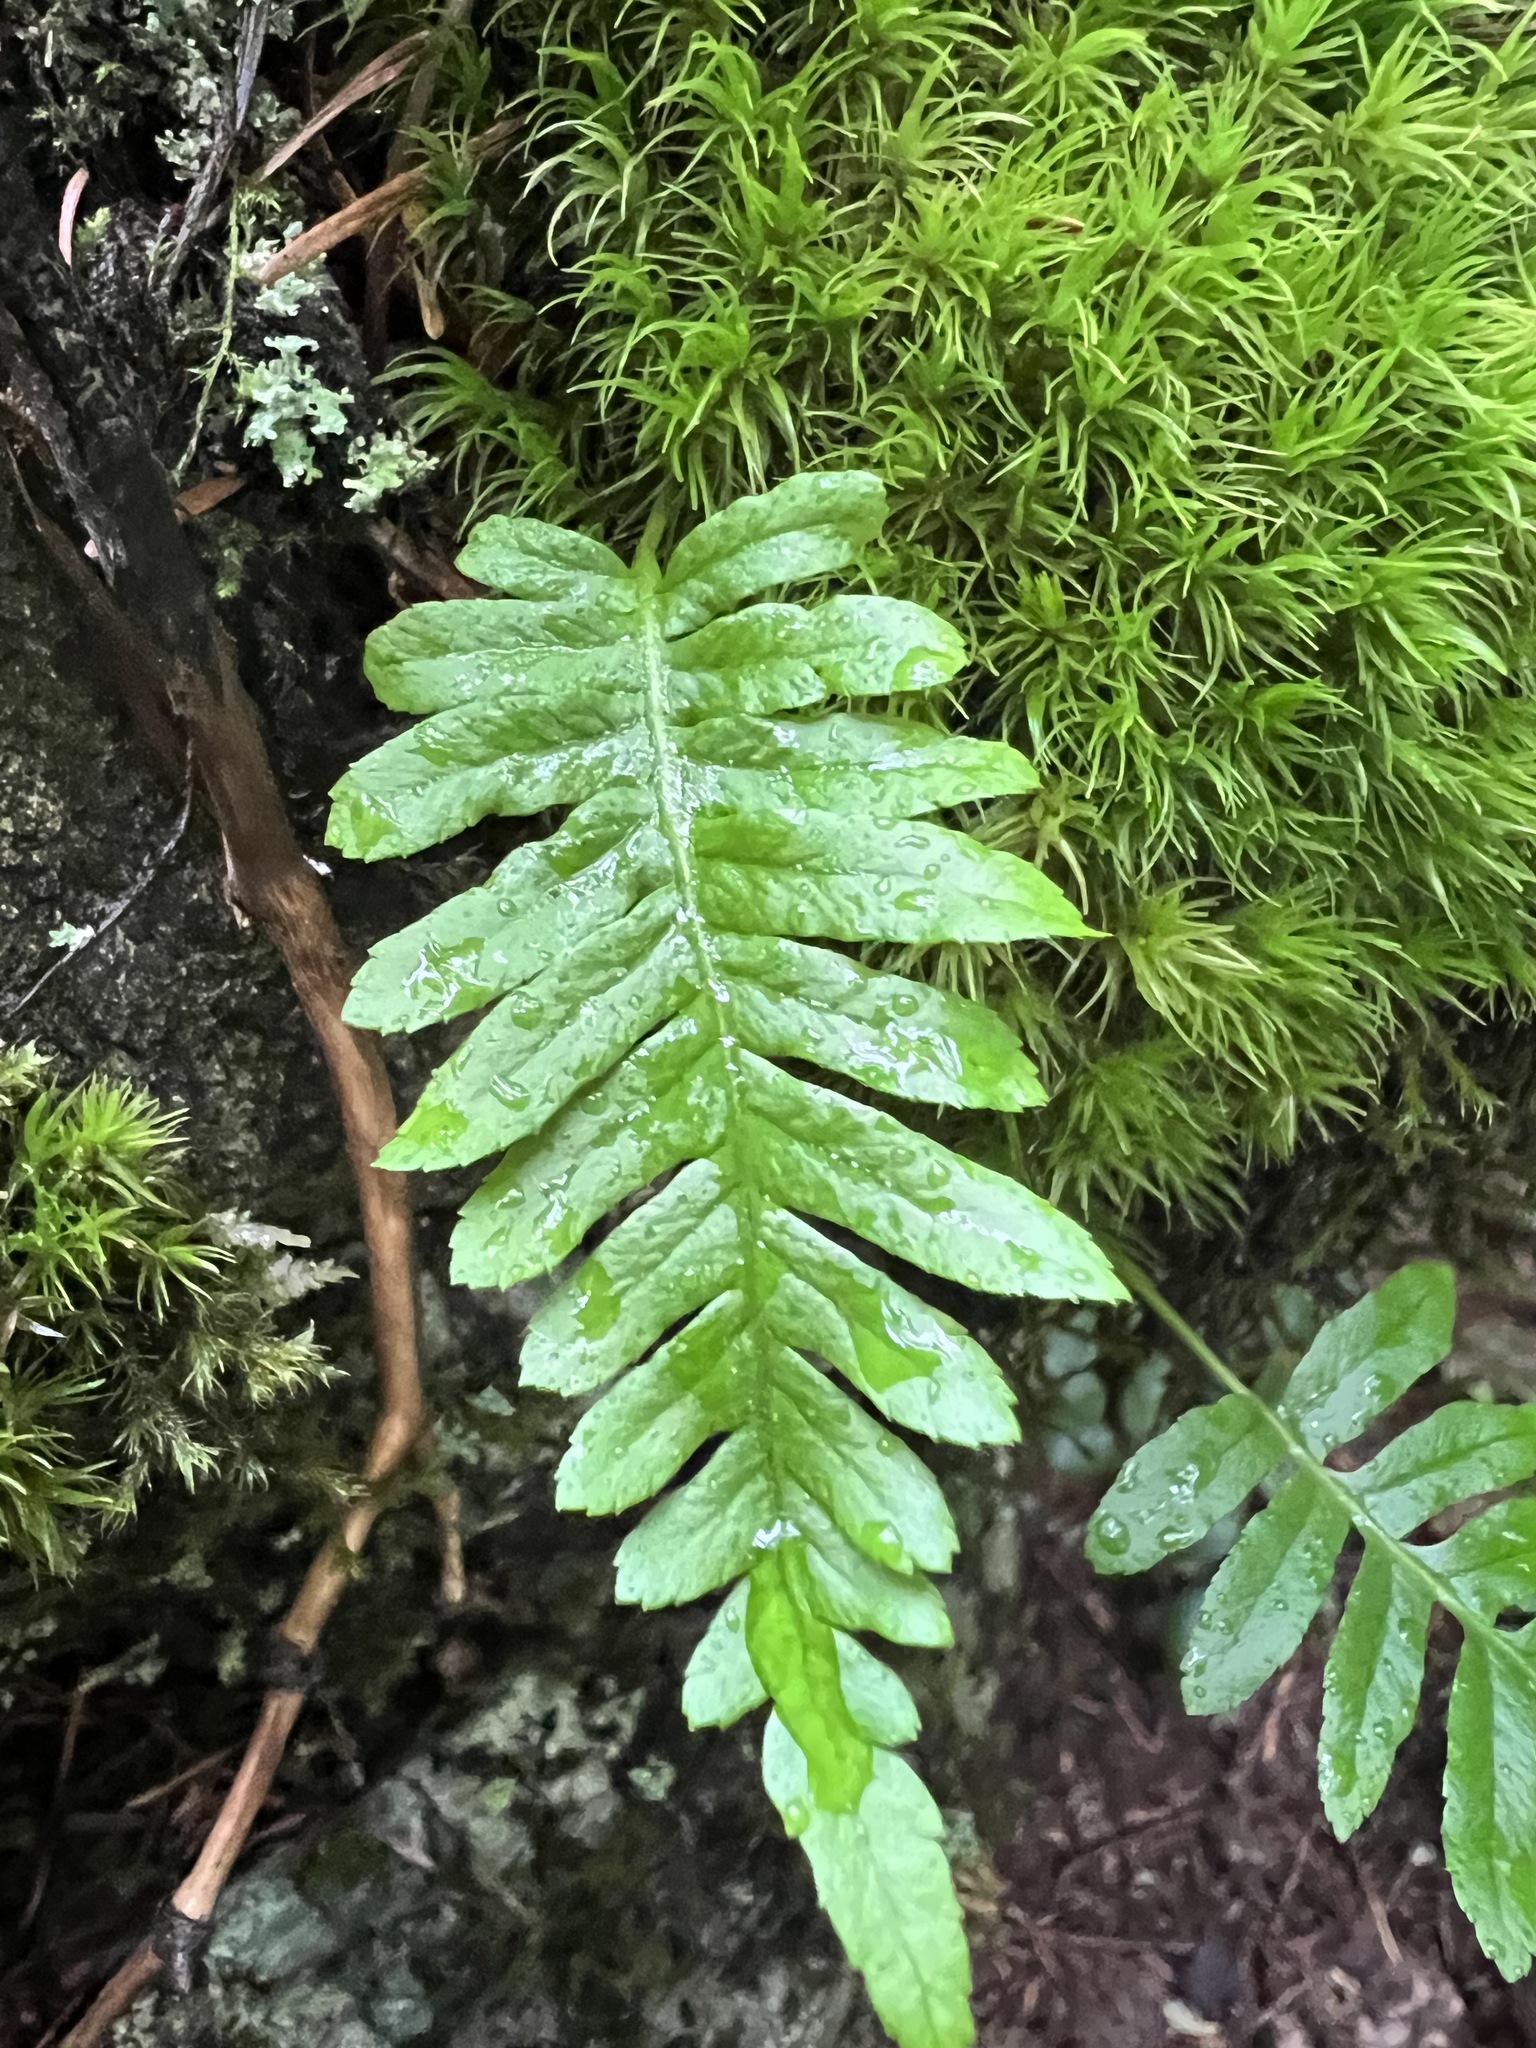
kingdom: Plantae
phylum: Tracheophyta
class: Polypodiopsida
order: Polypodiales
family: Polypodiaceae
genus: Polypodium
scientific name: Polypodium glycyrrhiza
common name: Licorice fern
